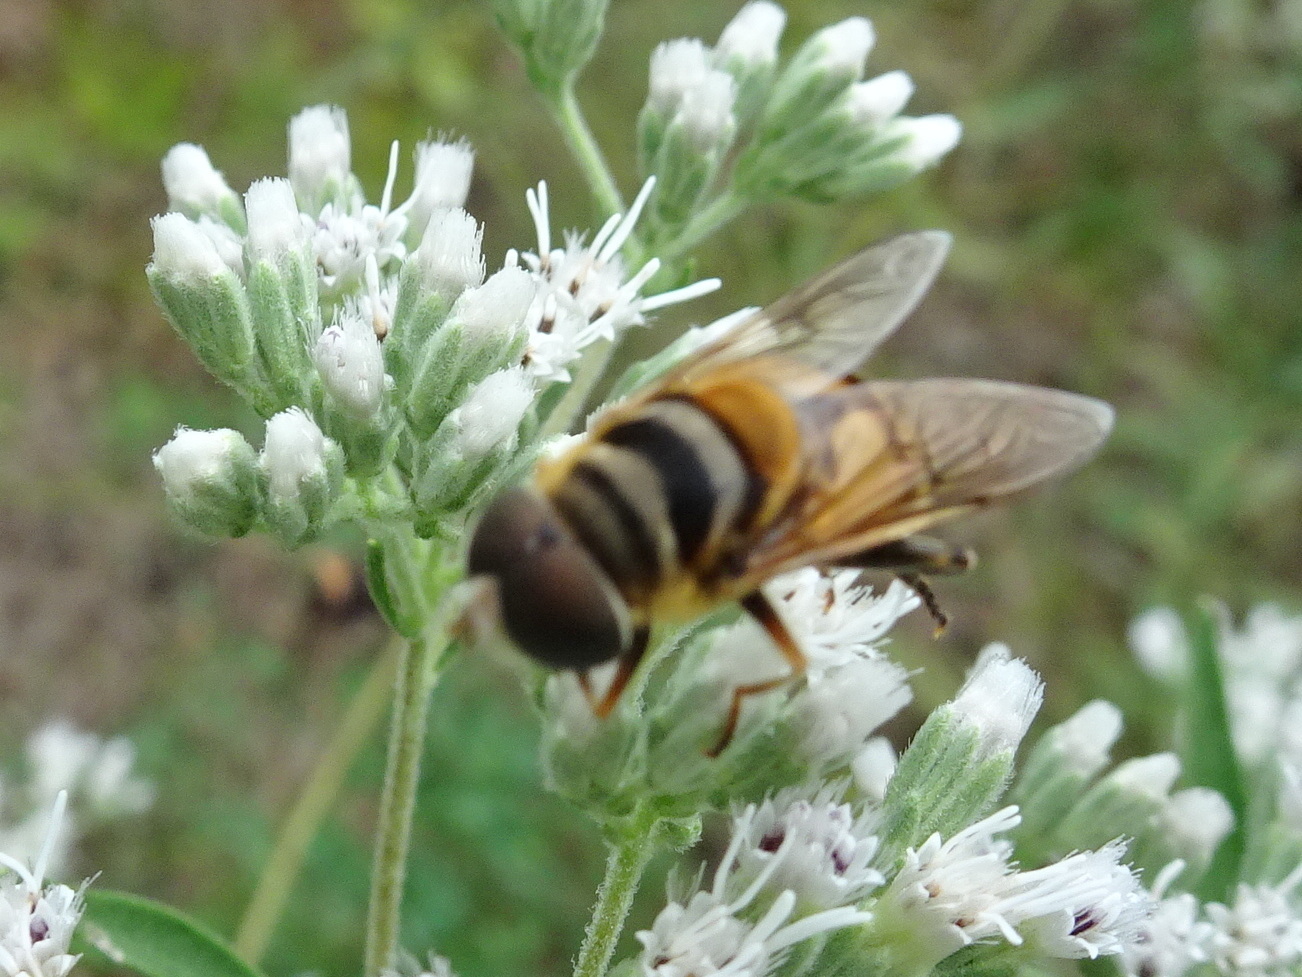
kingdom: Animalia
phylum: Arthropoda
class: Insecta
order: Diptera
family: Syrphidae
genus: Palpada
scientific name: Palpada vinetorum
